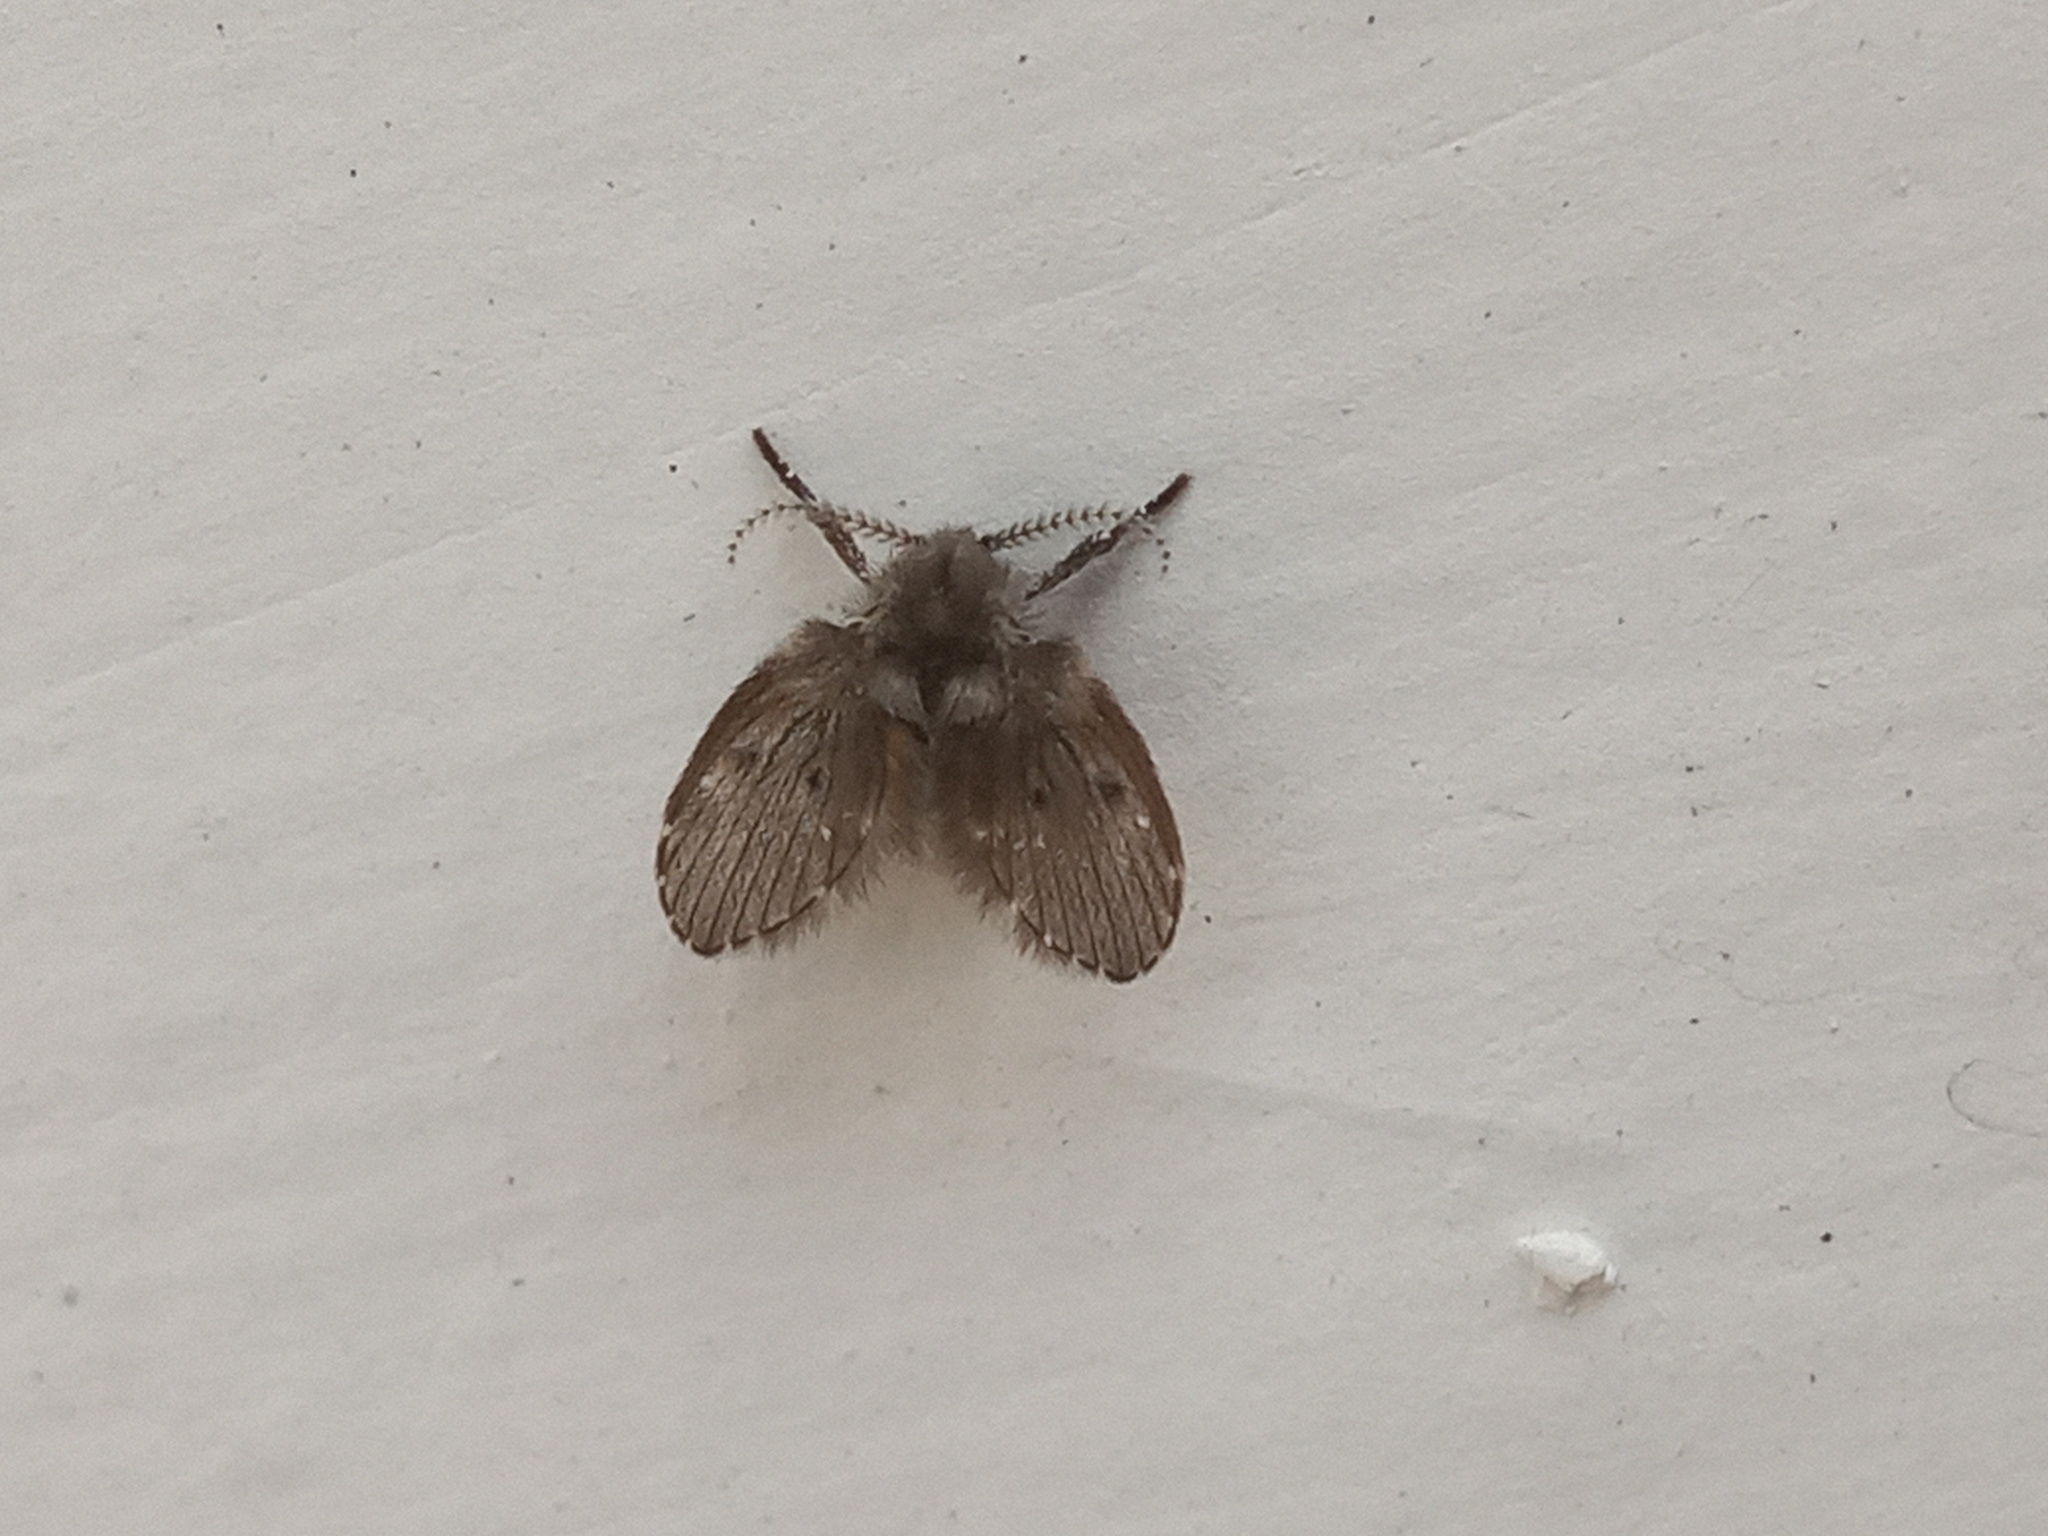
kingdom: Animalia
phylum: Arthropoda
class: Insecta
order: Diptera
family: Psychodidae
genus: Clogmia
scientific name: Clogmia albipunctatus
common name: White-spotted moth fly
